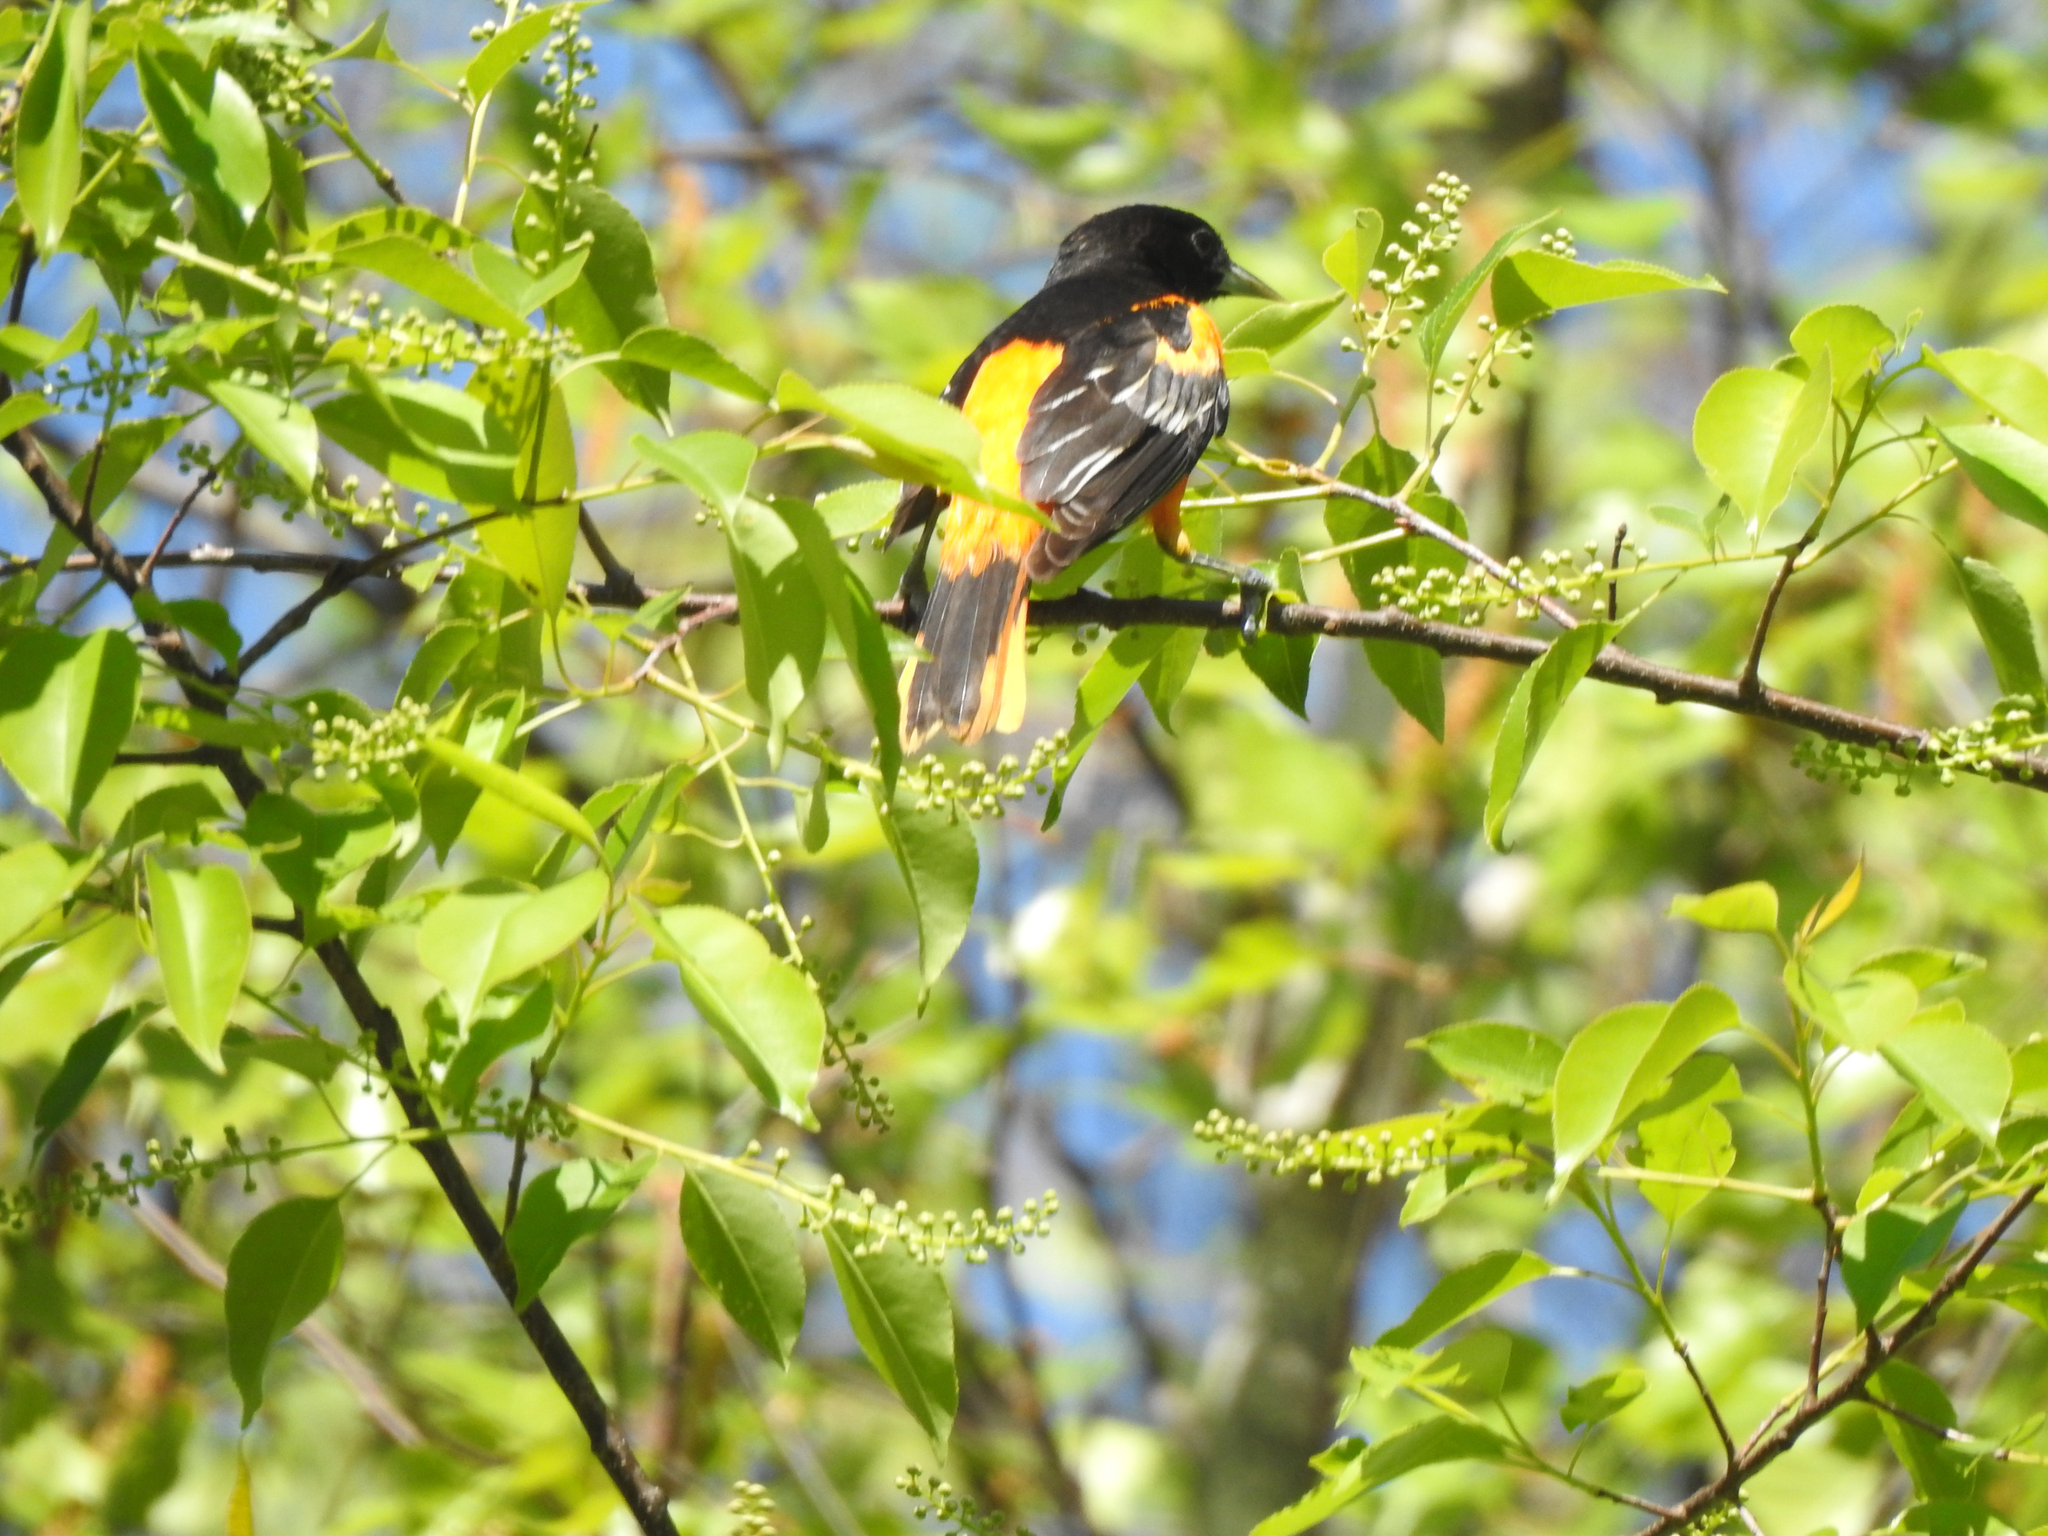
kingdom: Animalia
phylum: Chordata
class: Aves
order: Passeriformes
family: Icteridae
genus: Icterus
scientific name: Icterus galbula
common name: Baltimore oriole
